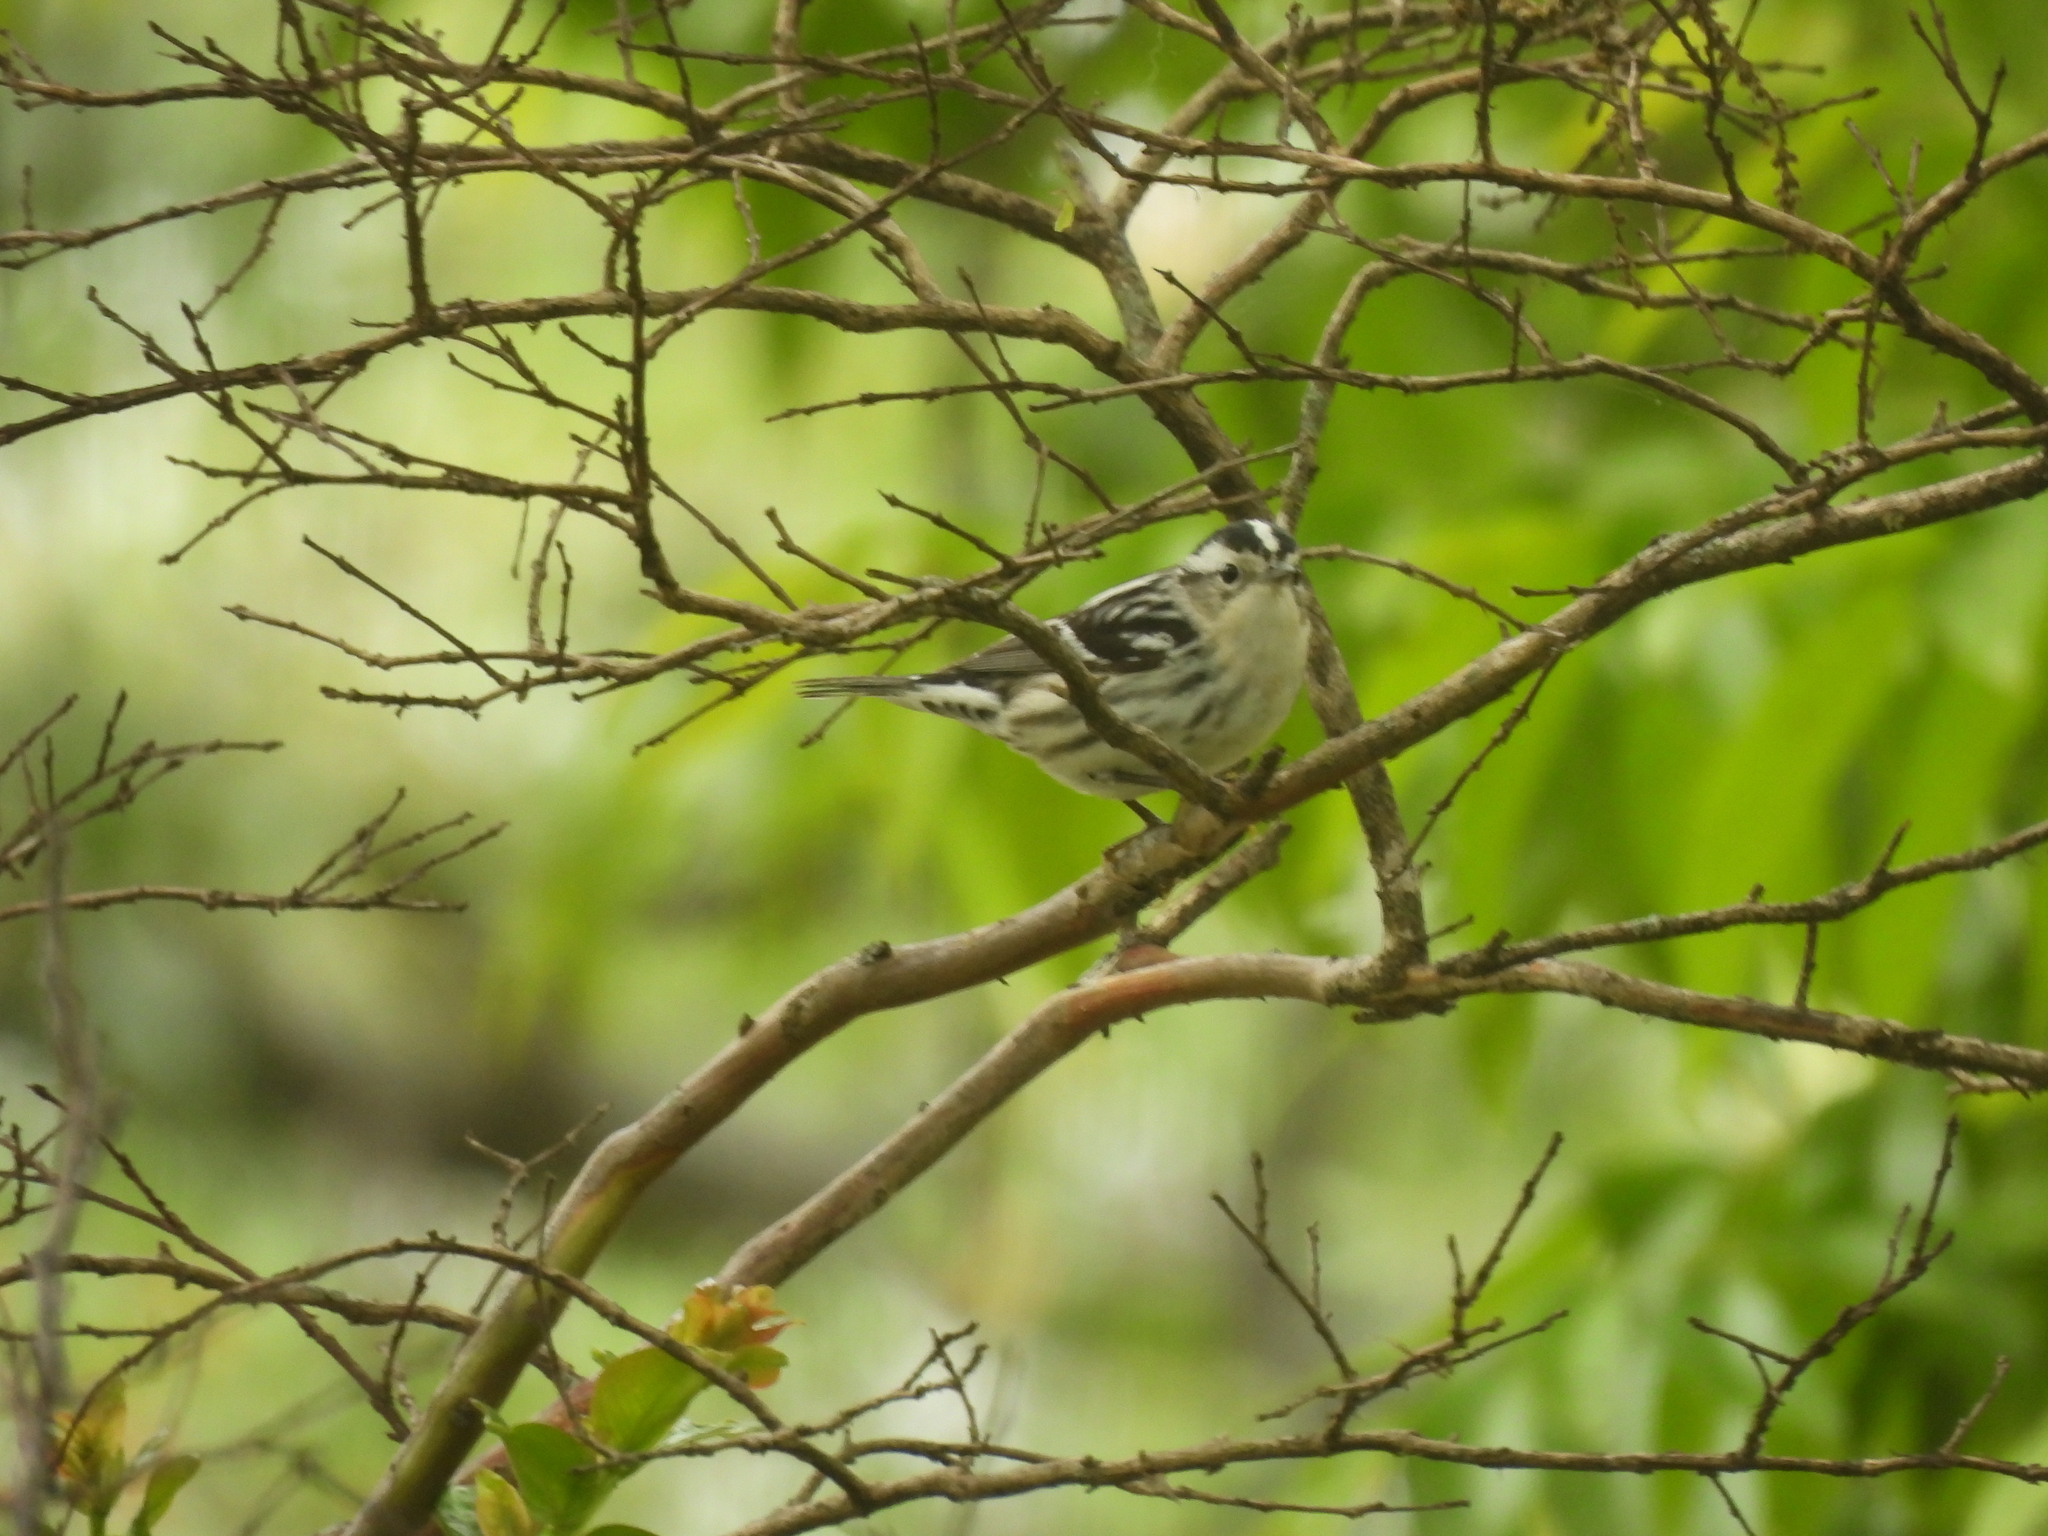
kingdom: Animalia
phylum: Chordata
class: Aves
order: Passeriformes
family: Parulidae
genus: Mniotilta
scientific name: Mniotilta varia
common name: Black-and-white warbler
